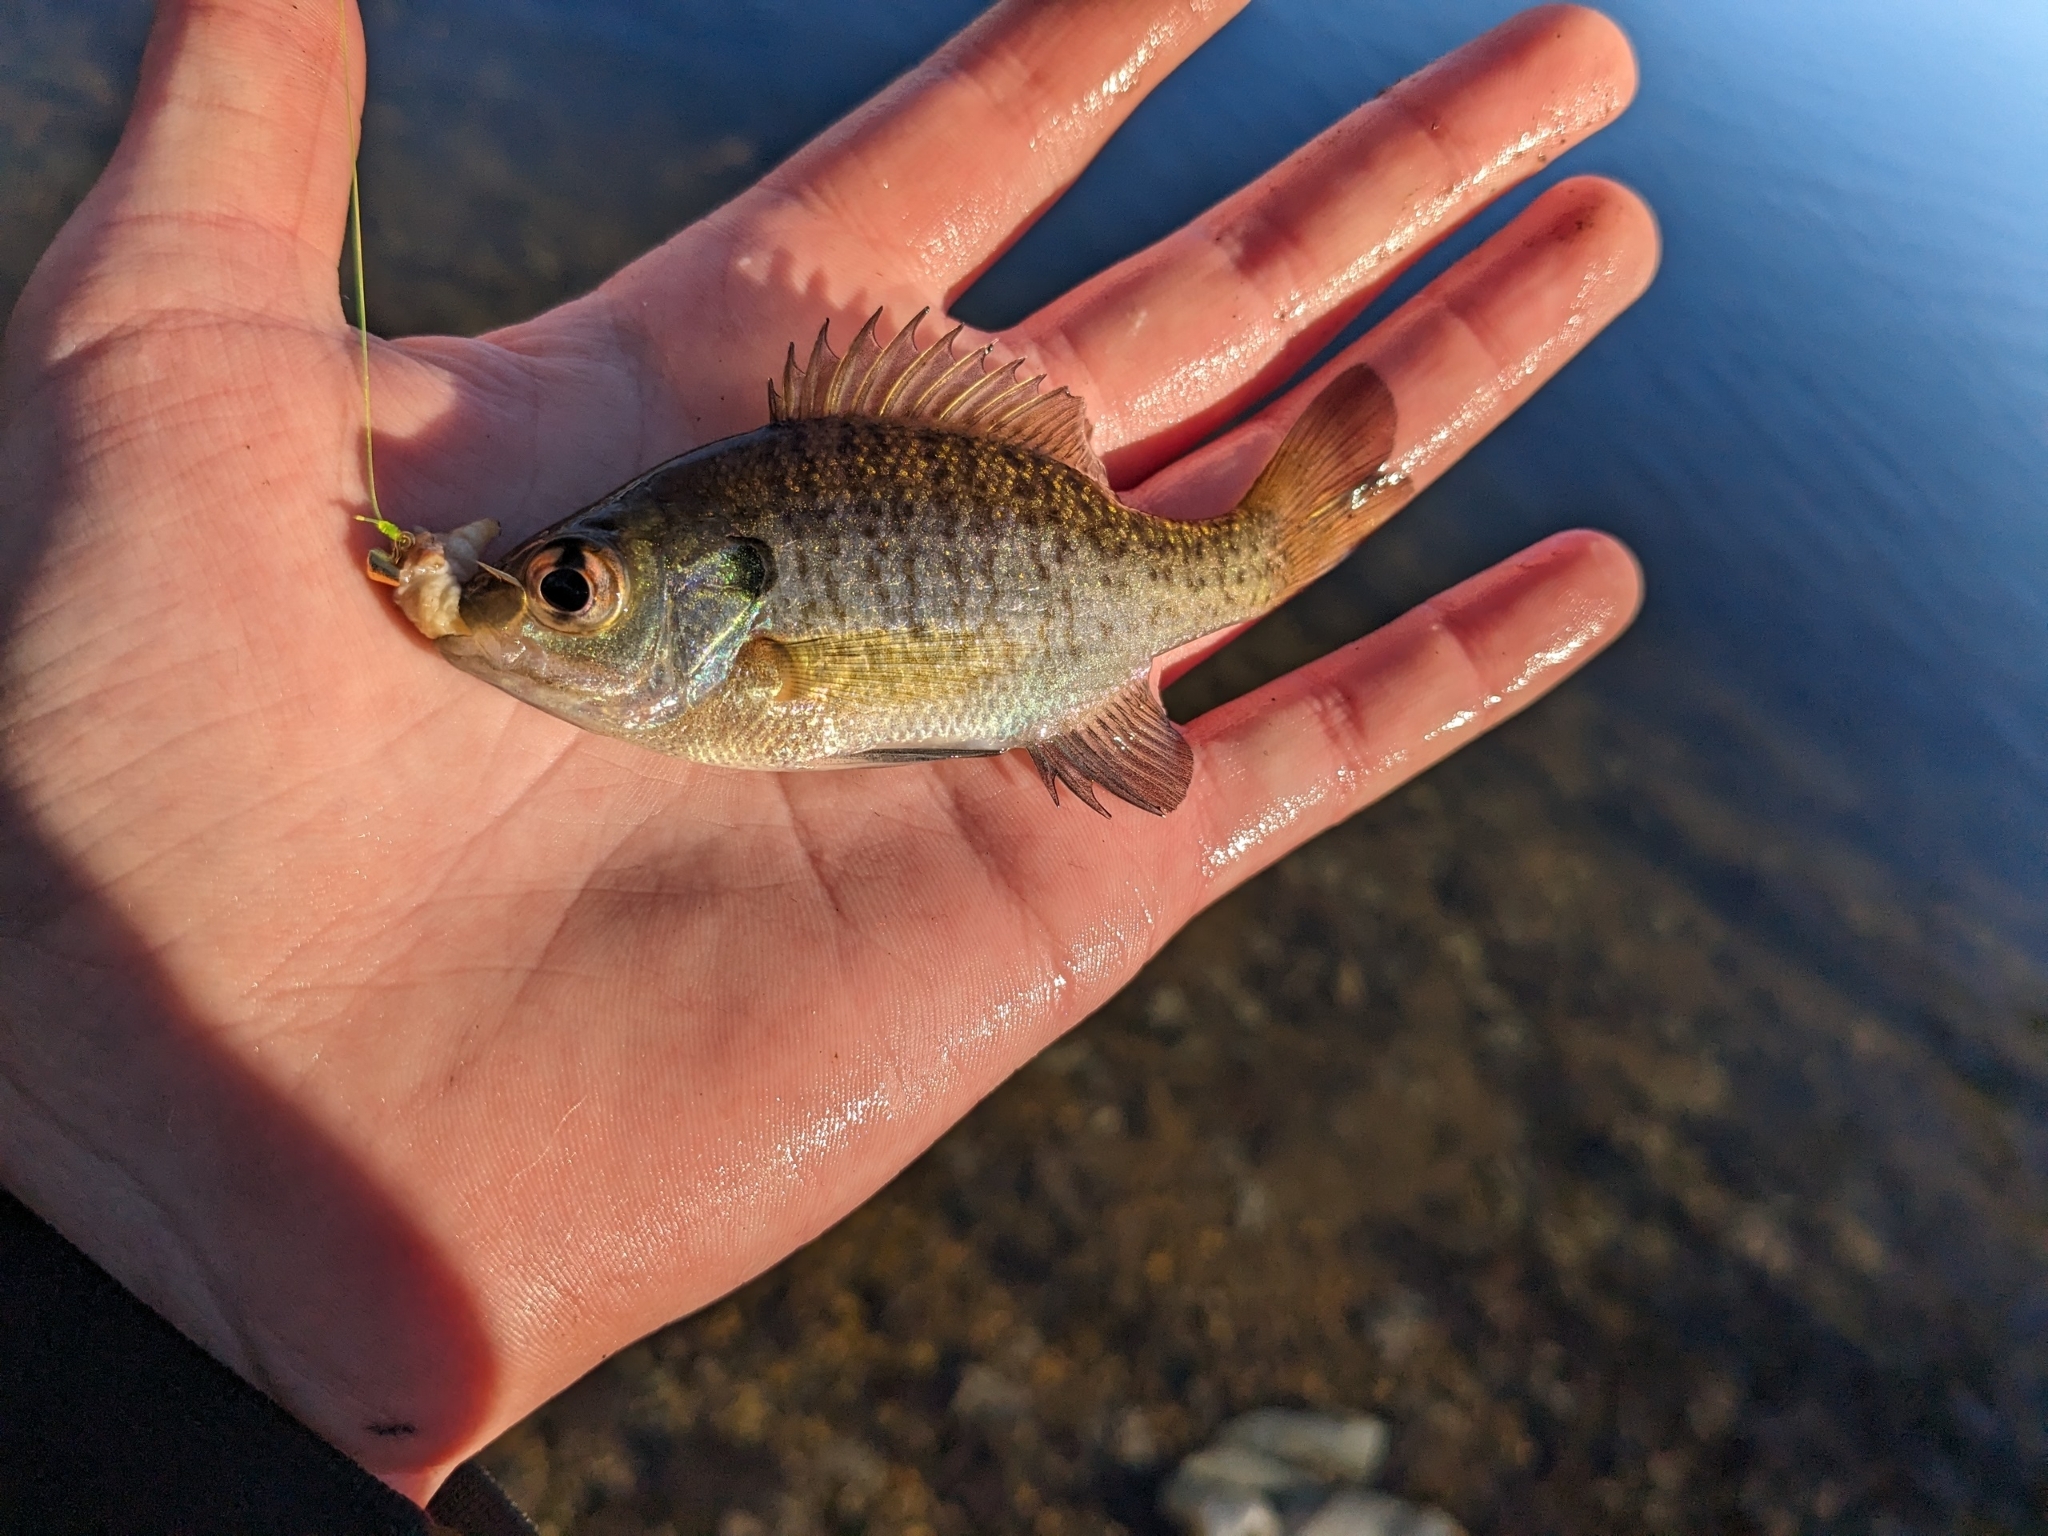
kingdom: Animalia
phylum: Chordata
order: Perciformes
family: Centrarchidae
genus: Lepomis
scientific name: Lepomis macrochirus
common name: Bluegill
